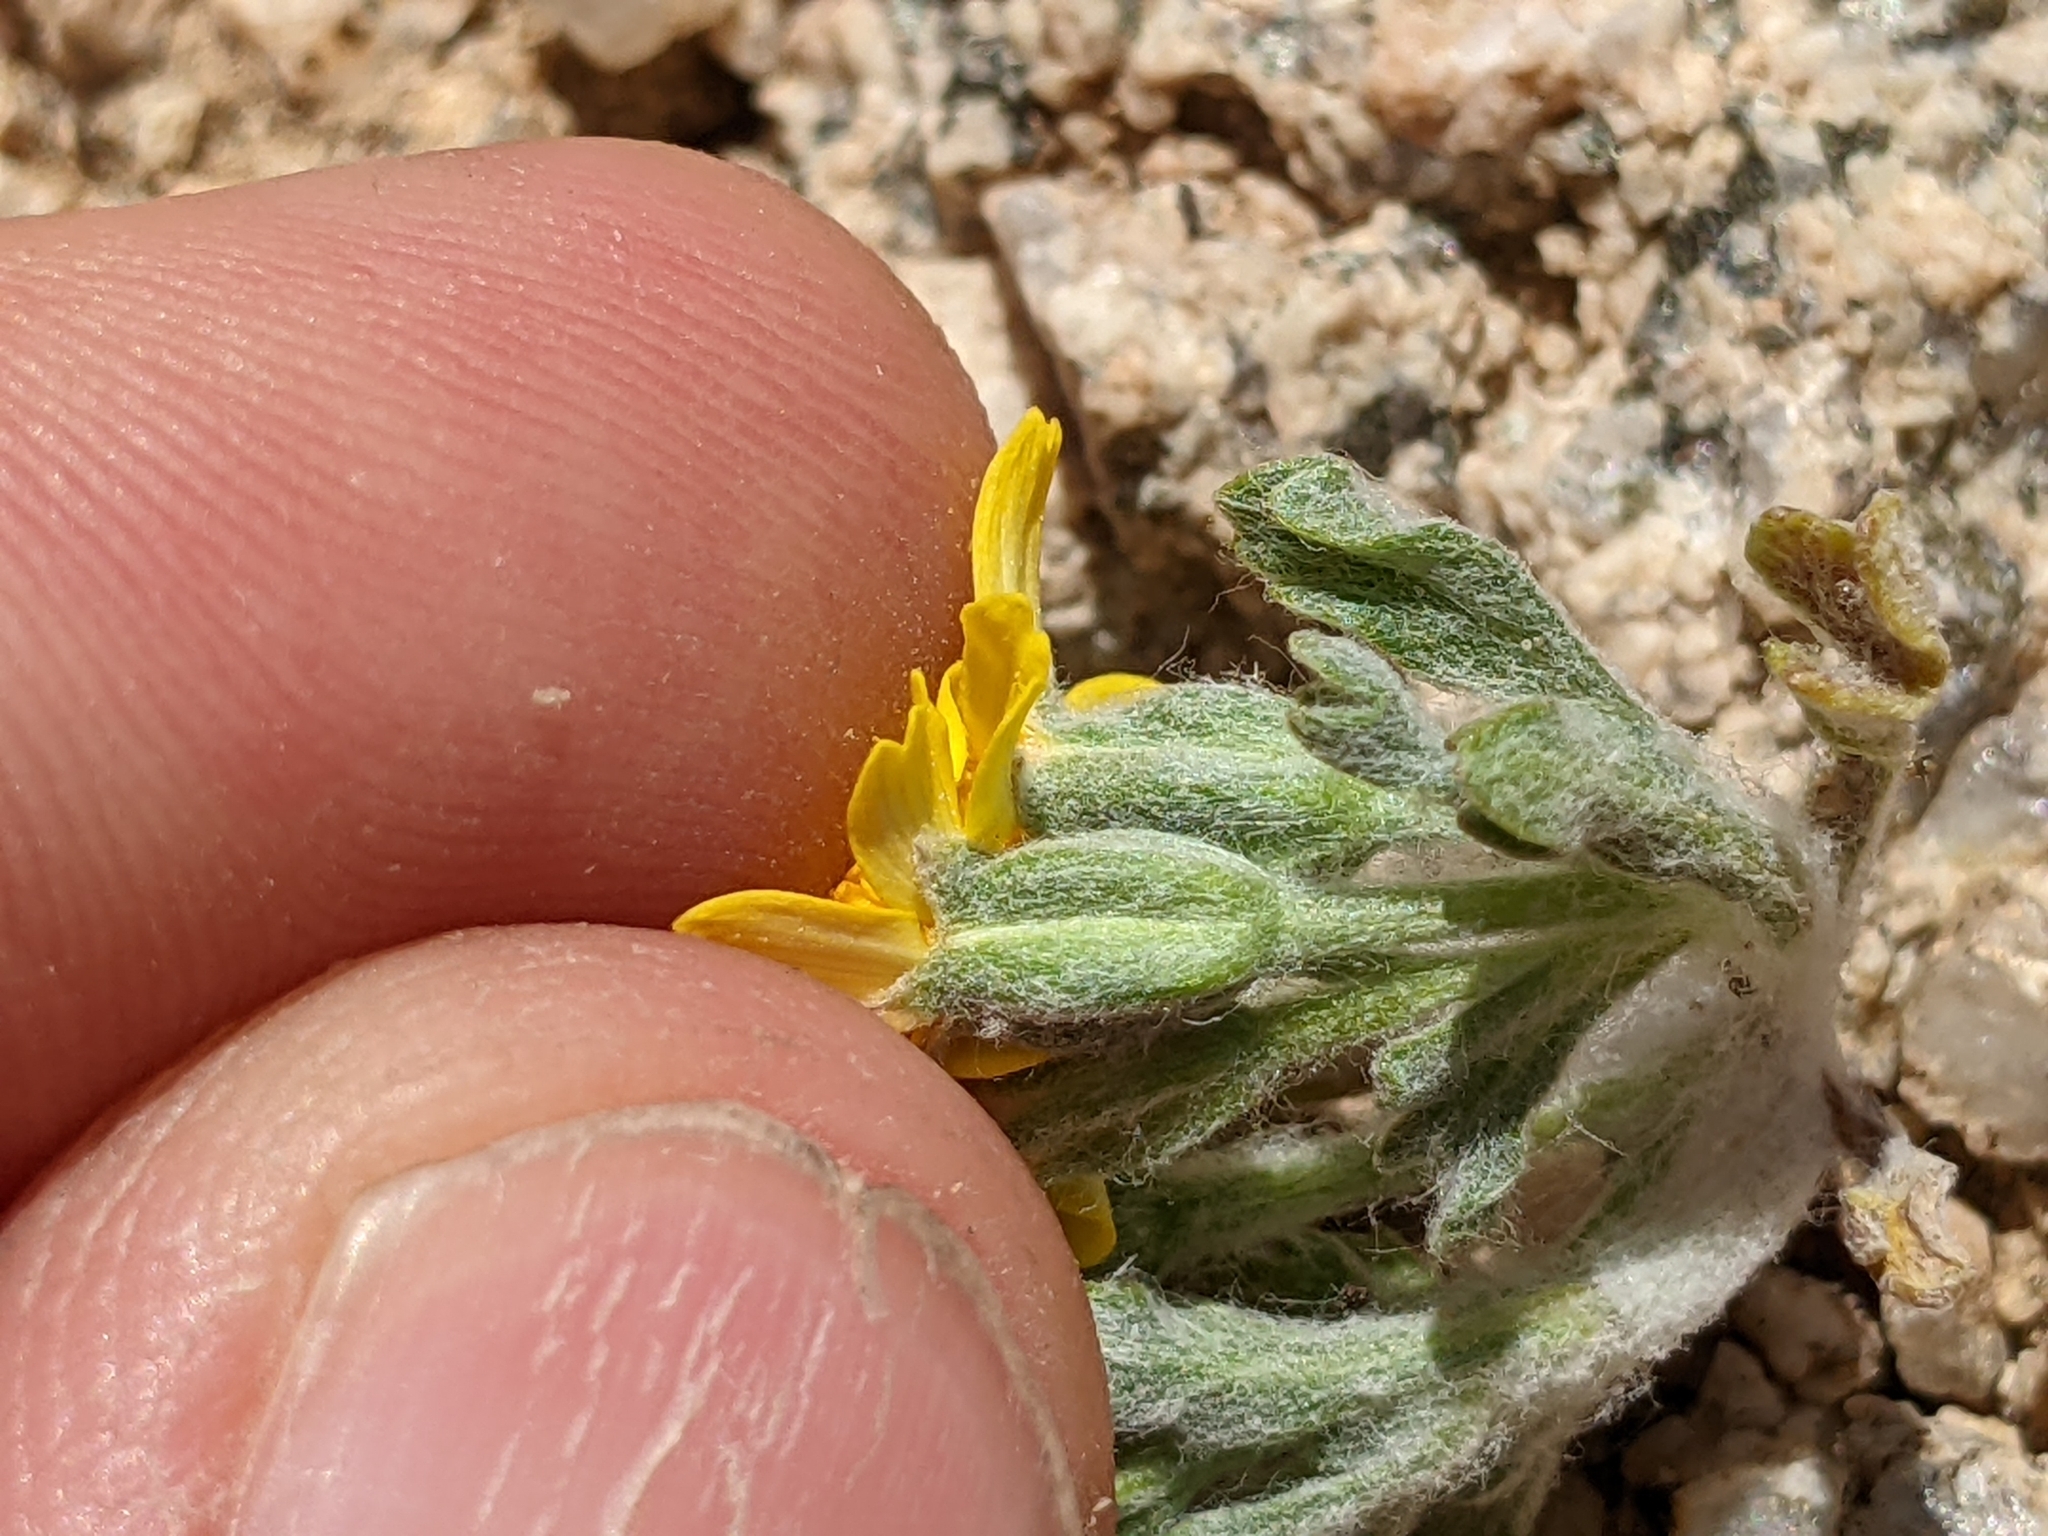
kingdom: Plantae
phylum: Tracheophyta
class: Magnoliopsida
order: Asterales
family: Asteraceae
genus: Syntrichopappus
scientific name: Syntrichopappus fremontii
